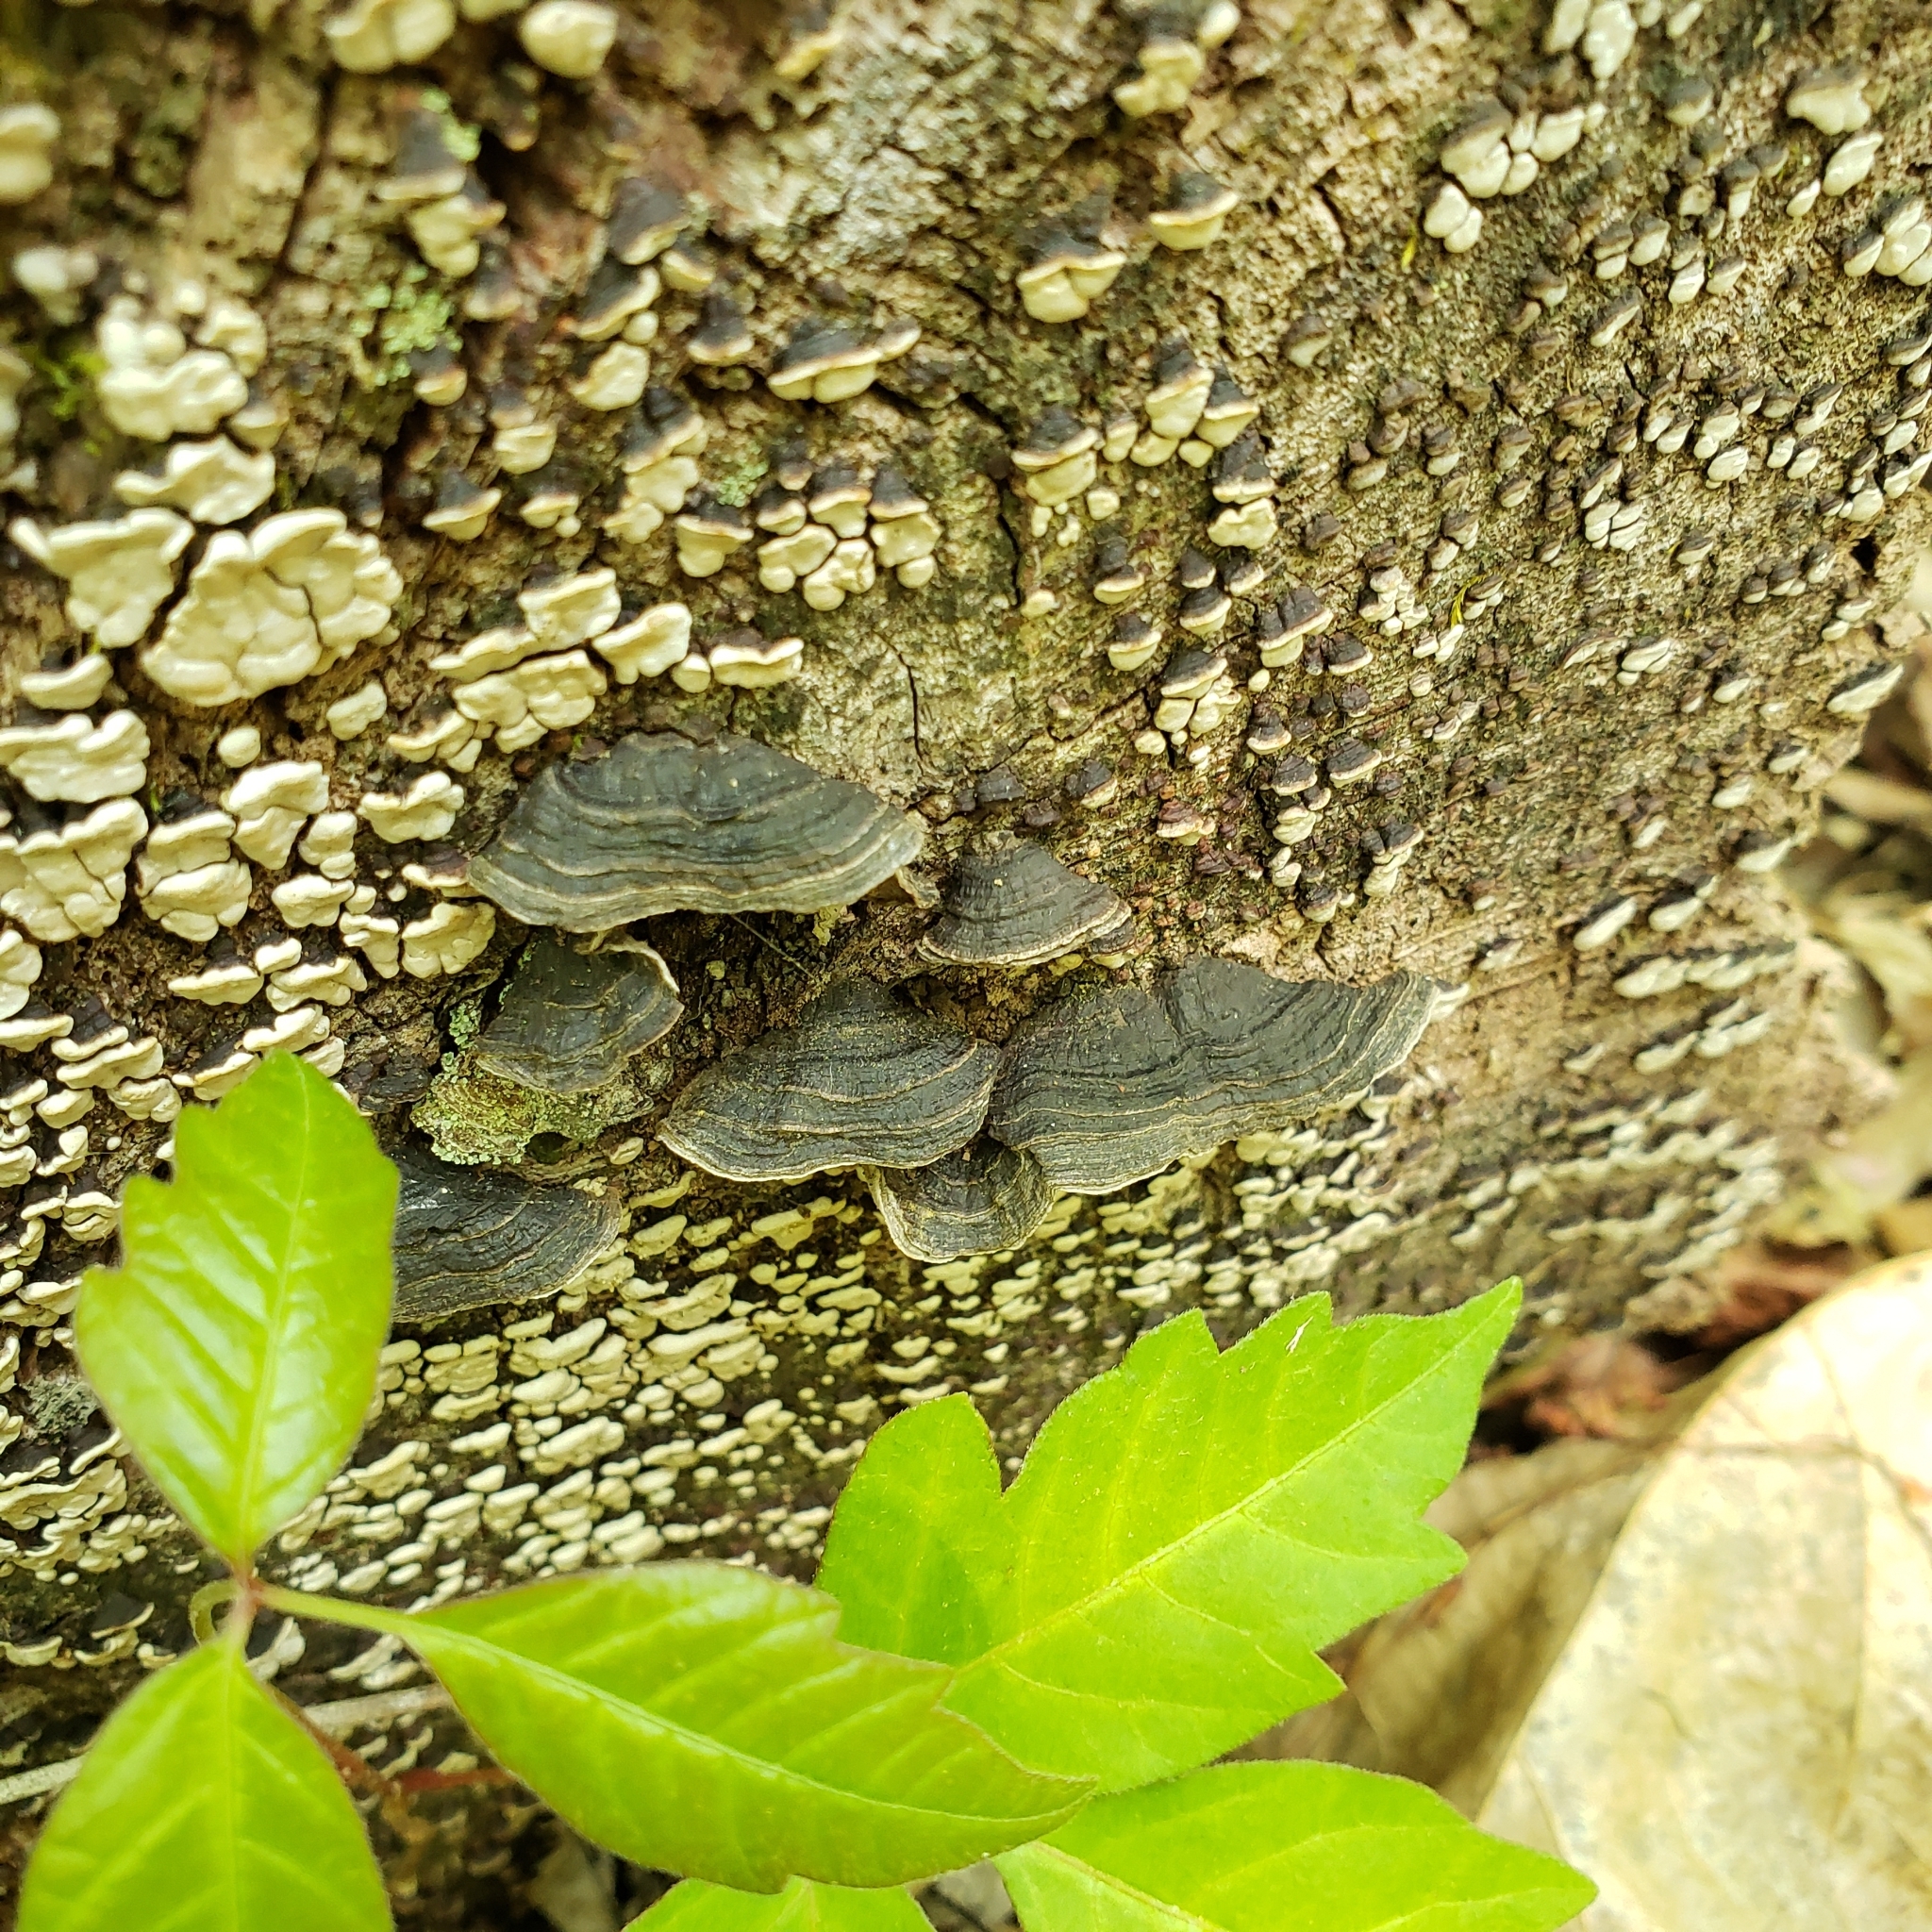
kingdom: Fungi
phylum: Basidiomycota
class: Agaricomycetes
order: Hymenochaetales
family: Hymenochaetaceae
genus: Hymenochaete
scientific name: Hymenochaete rubiginosa
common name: Oak curtain crust
